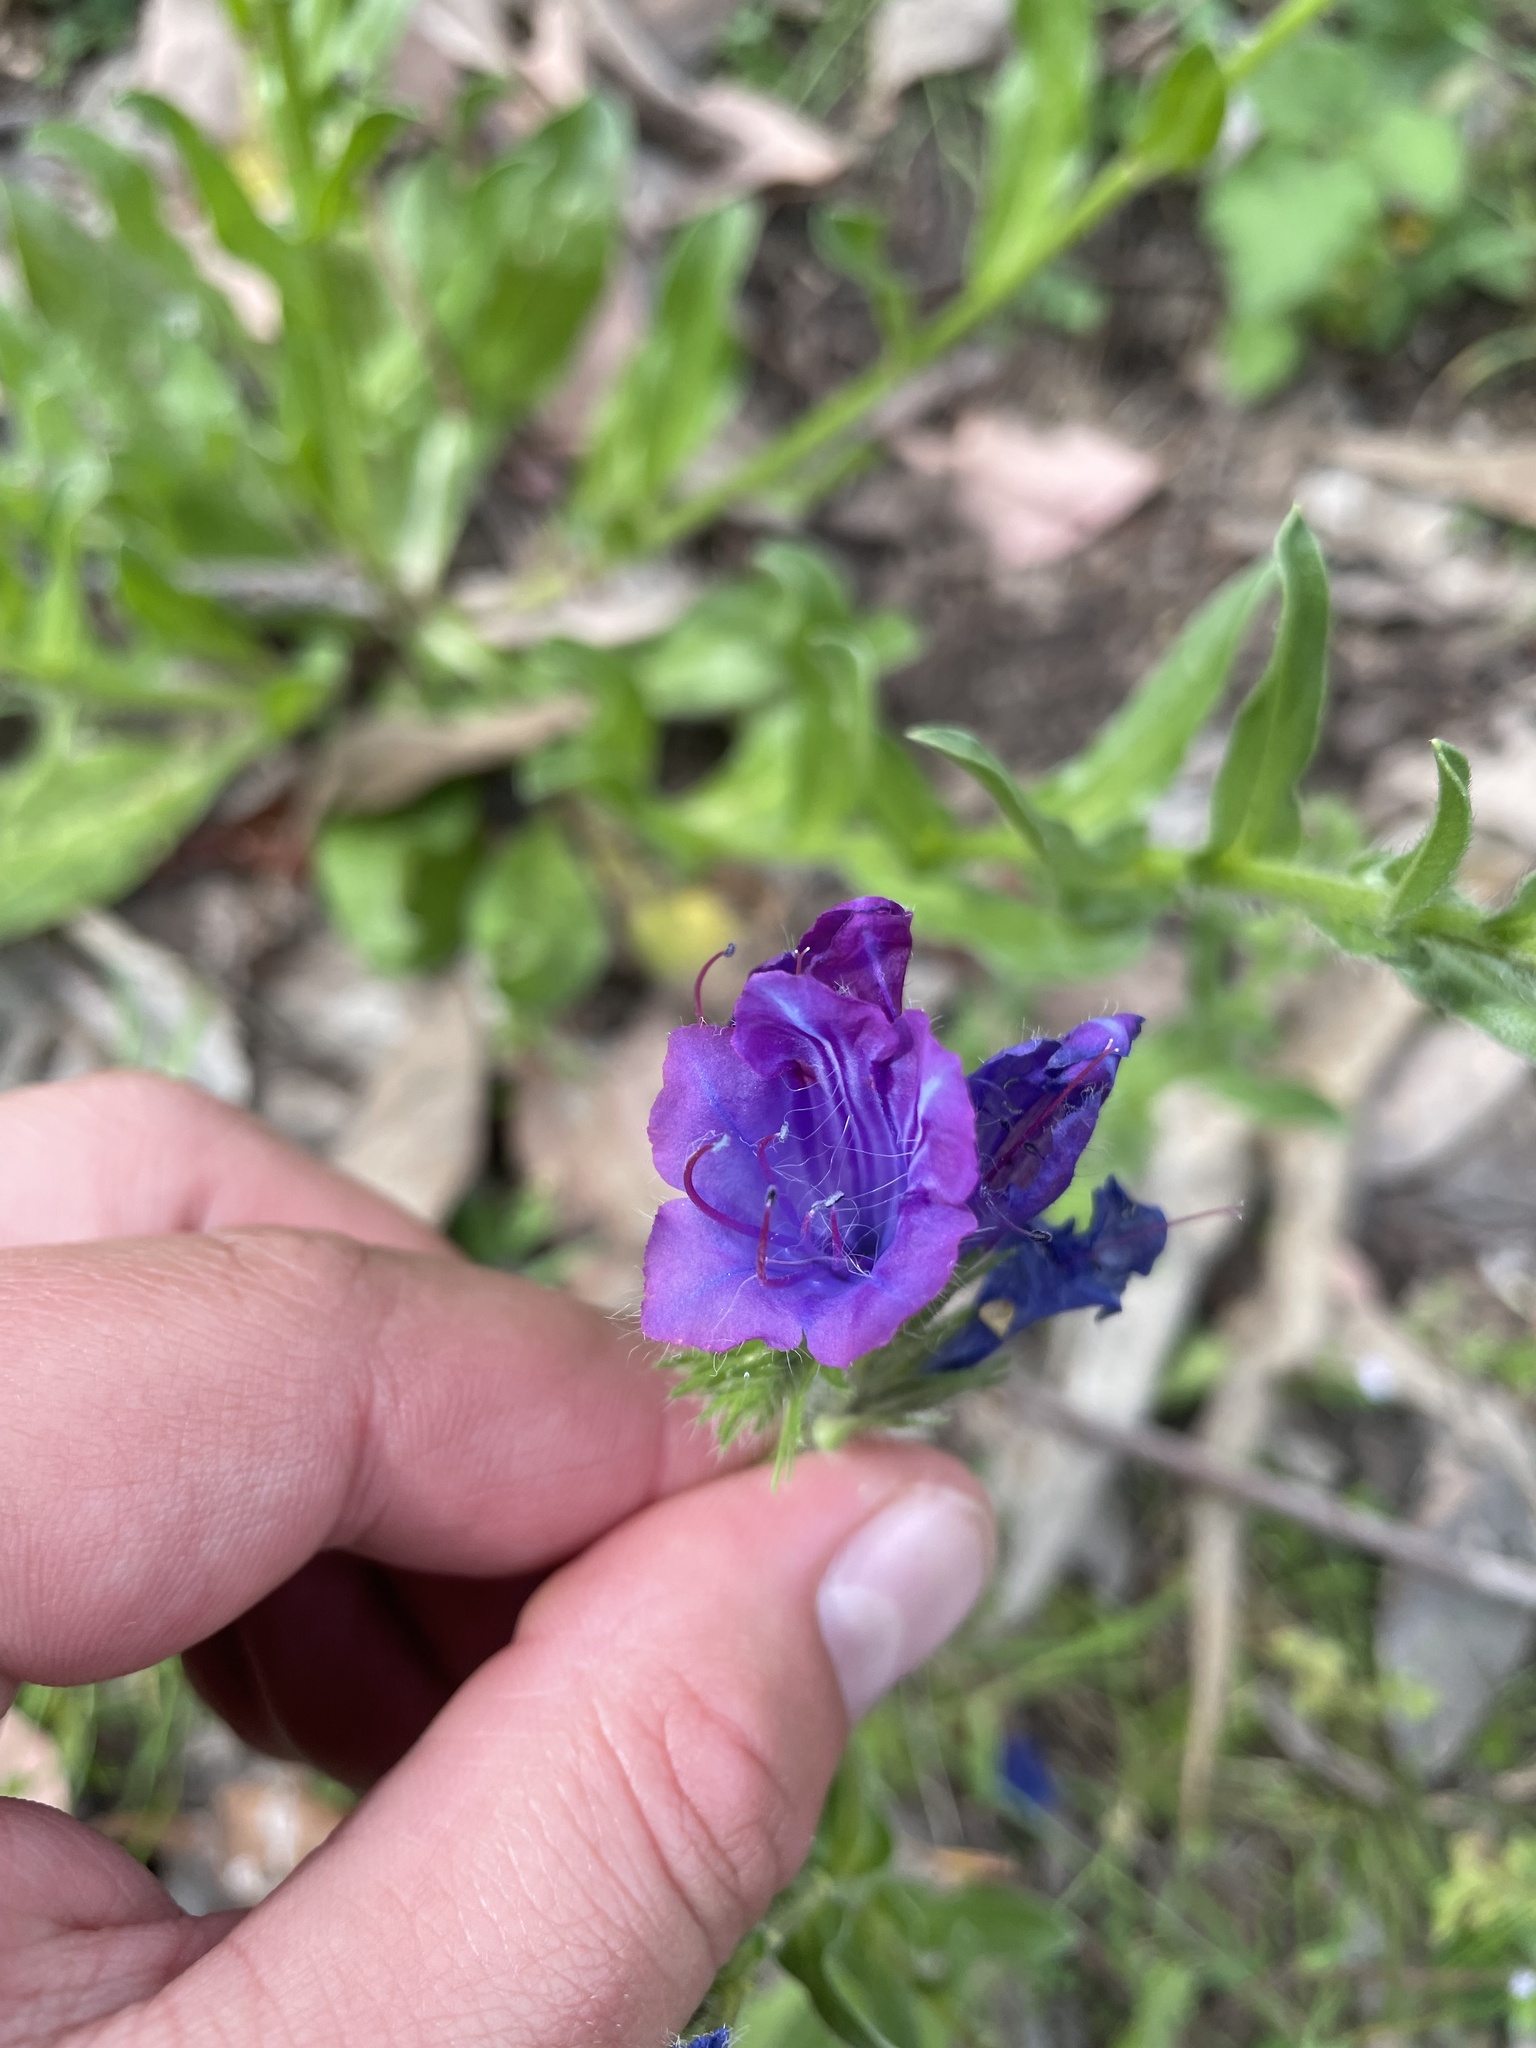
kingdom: Plantae
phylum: Tracheophyta
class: Magnoliopsida
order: Boraginales
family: Boraginaceae
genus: Echium
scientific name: Echium plantagineum
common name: Purple viper's-bugloss
